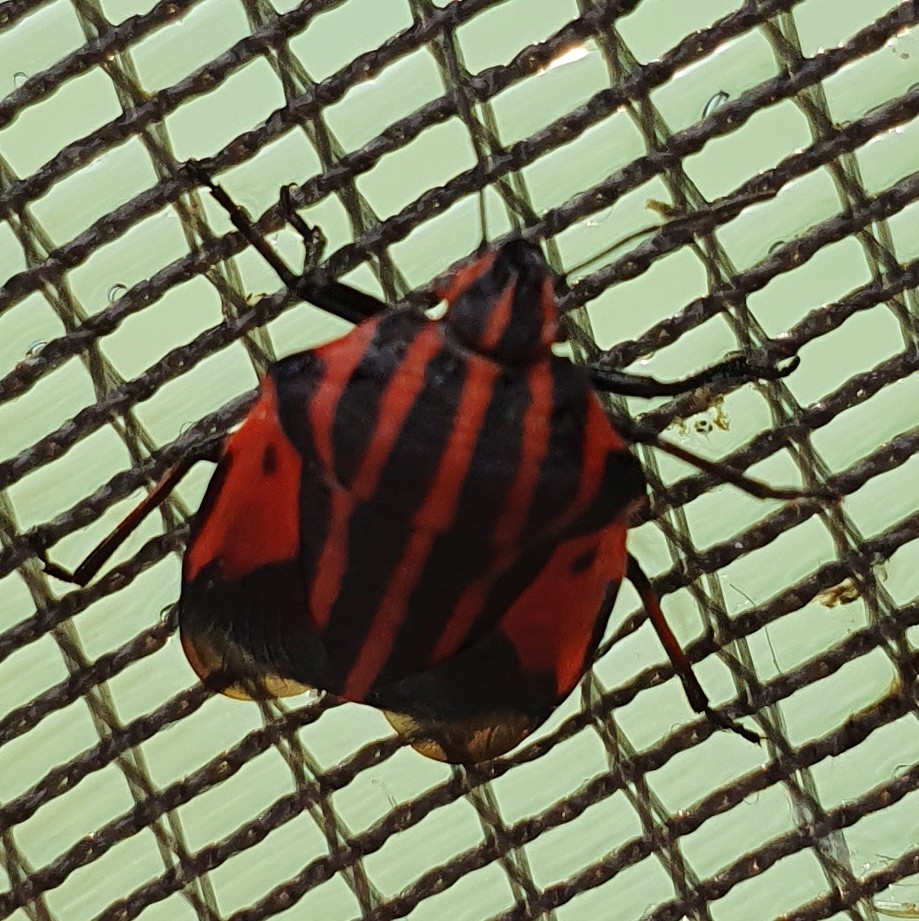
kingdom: Animalia
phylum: Arthropoda
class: Insecta
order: Hemiptera
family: Pentatomidae
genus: Graphosoma
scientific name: Graphosoma italicum
